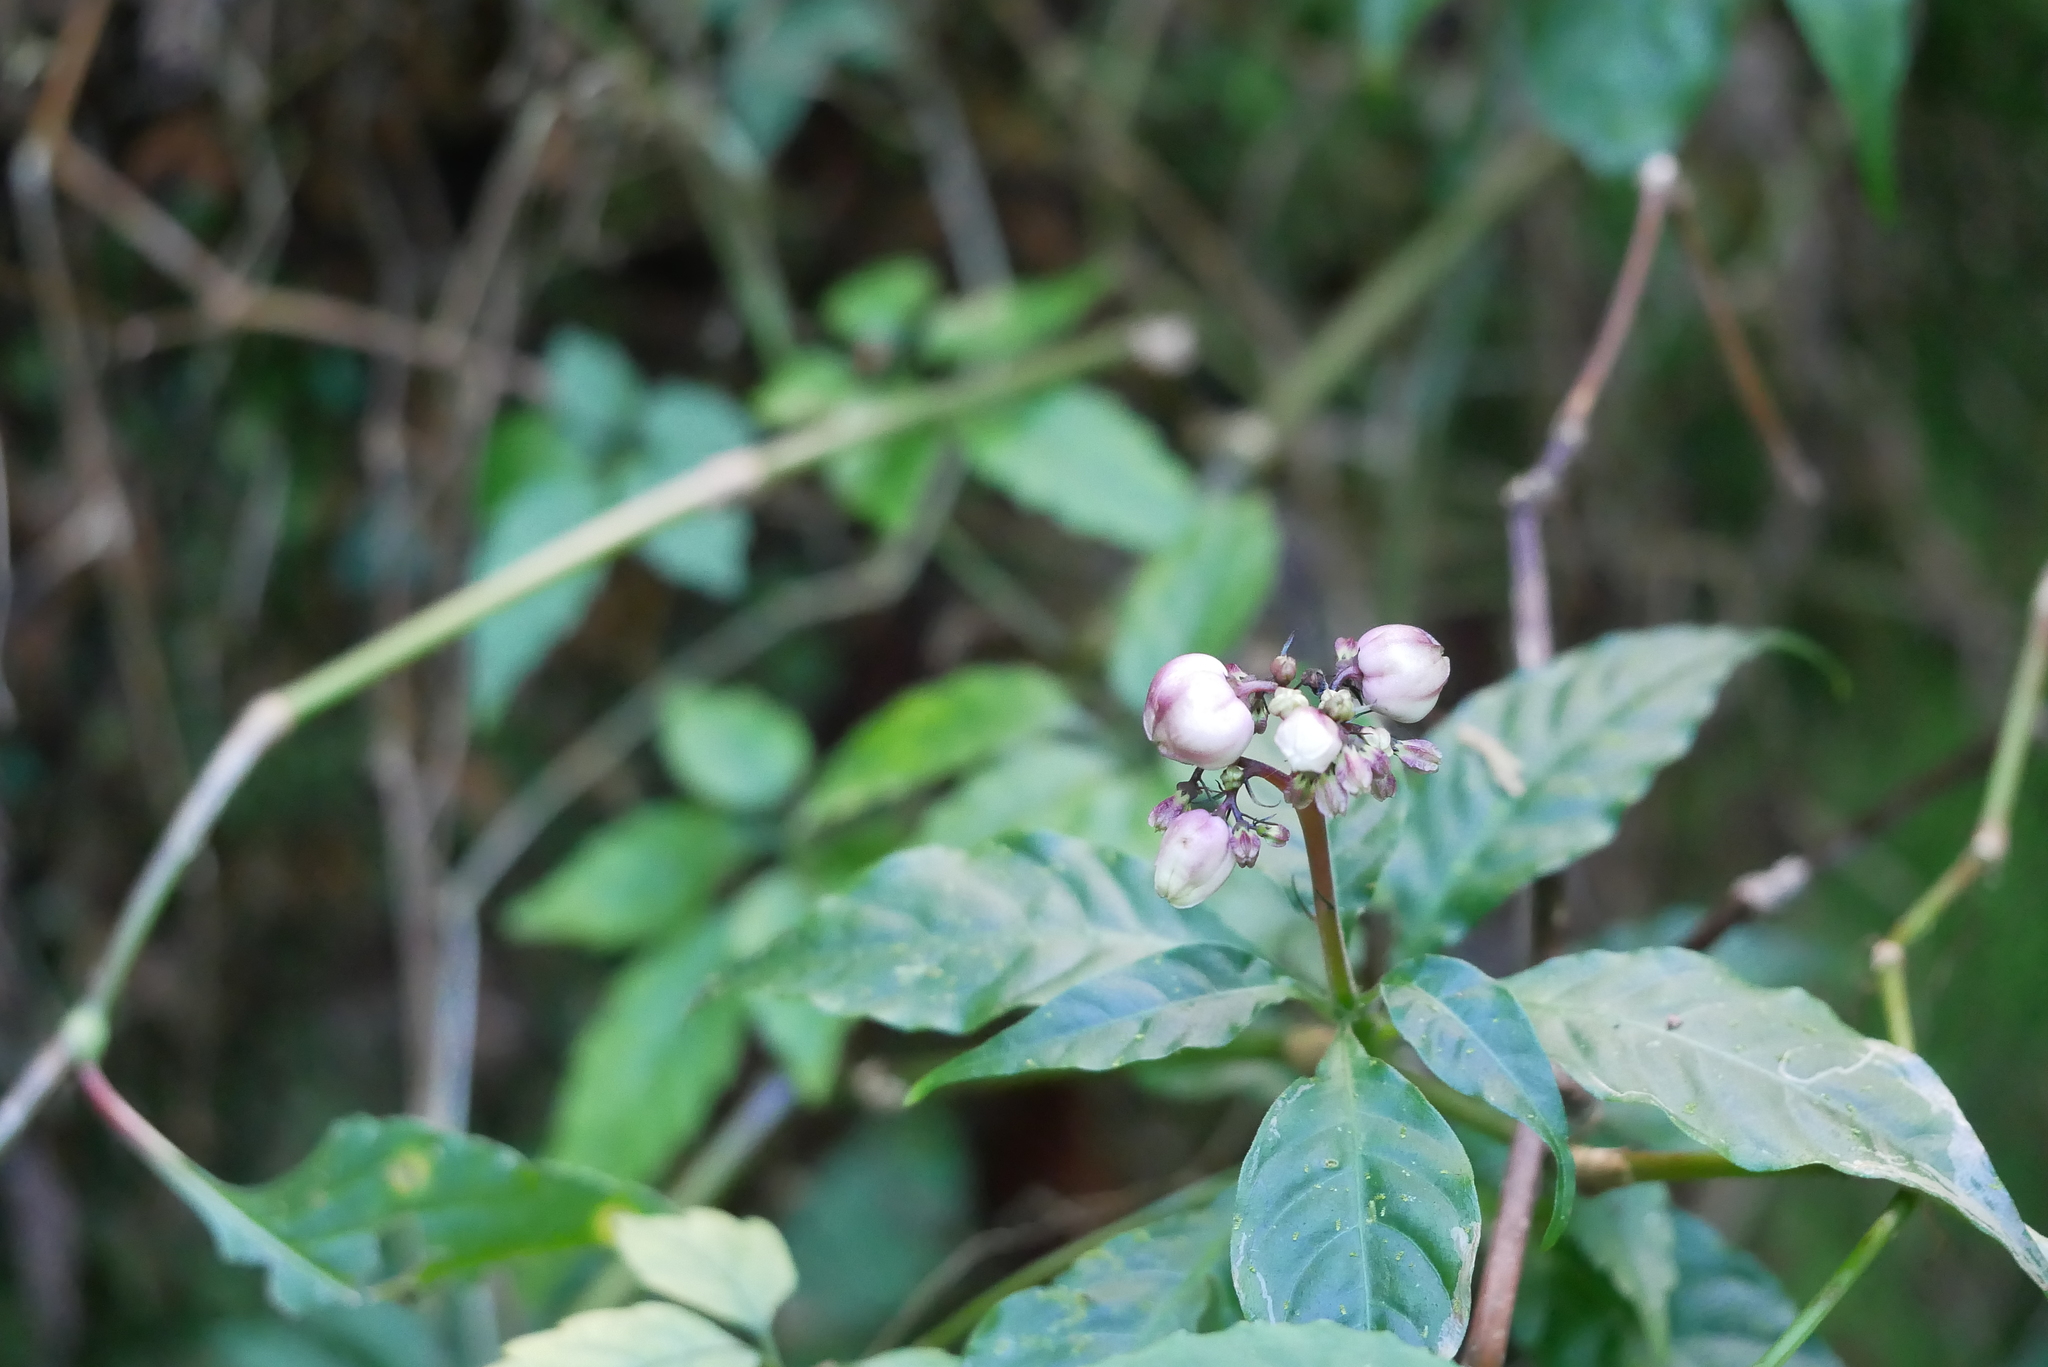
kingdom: Plantae
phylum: Tracheophyta
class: Magnoliopsida
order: Gentianales
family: Rubiaceae
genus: Ophiorrhiza
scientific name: Ophiorrhiza japonica
